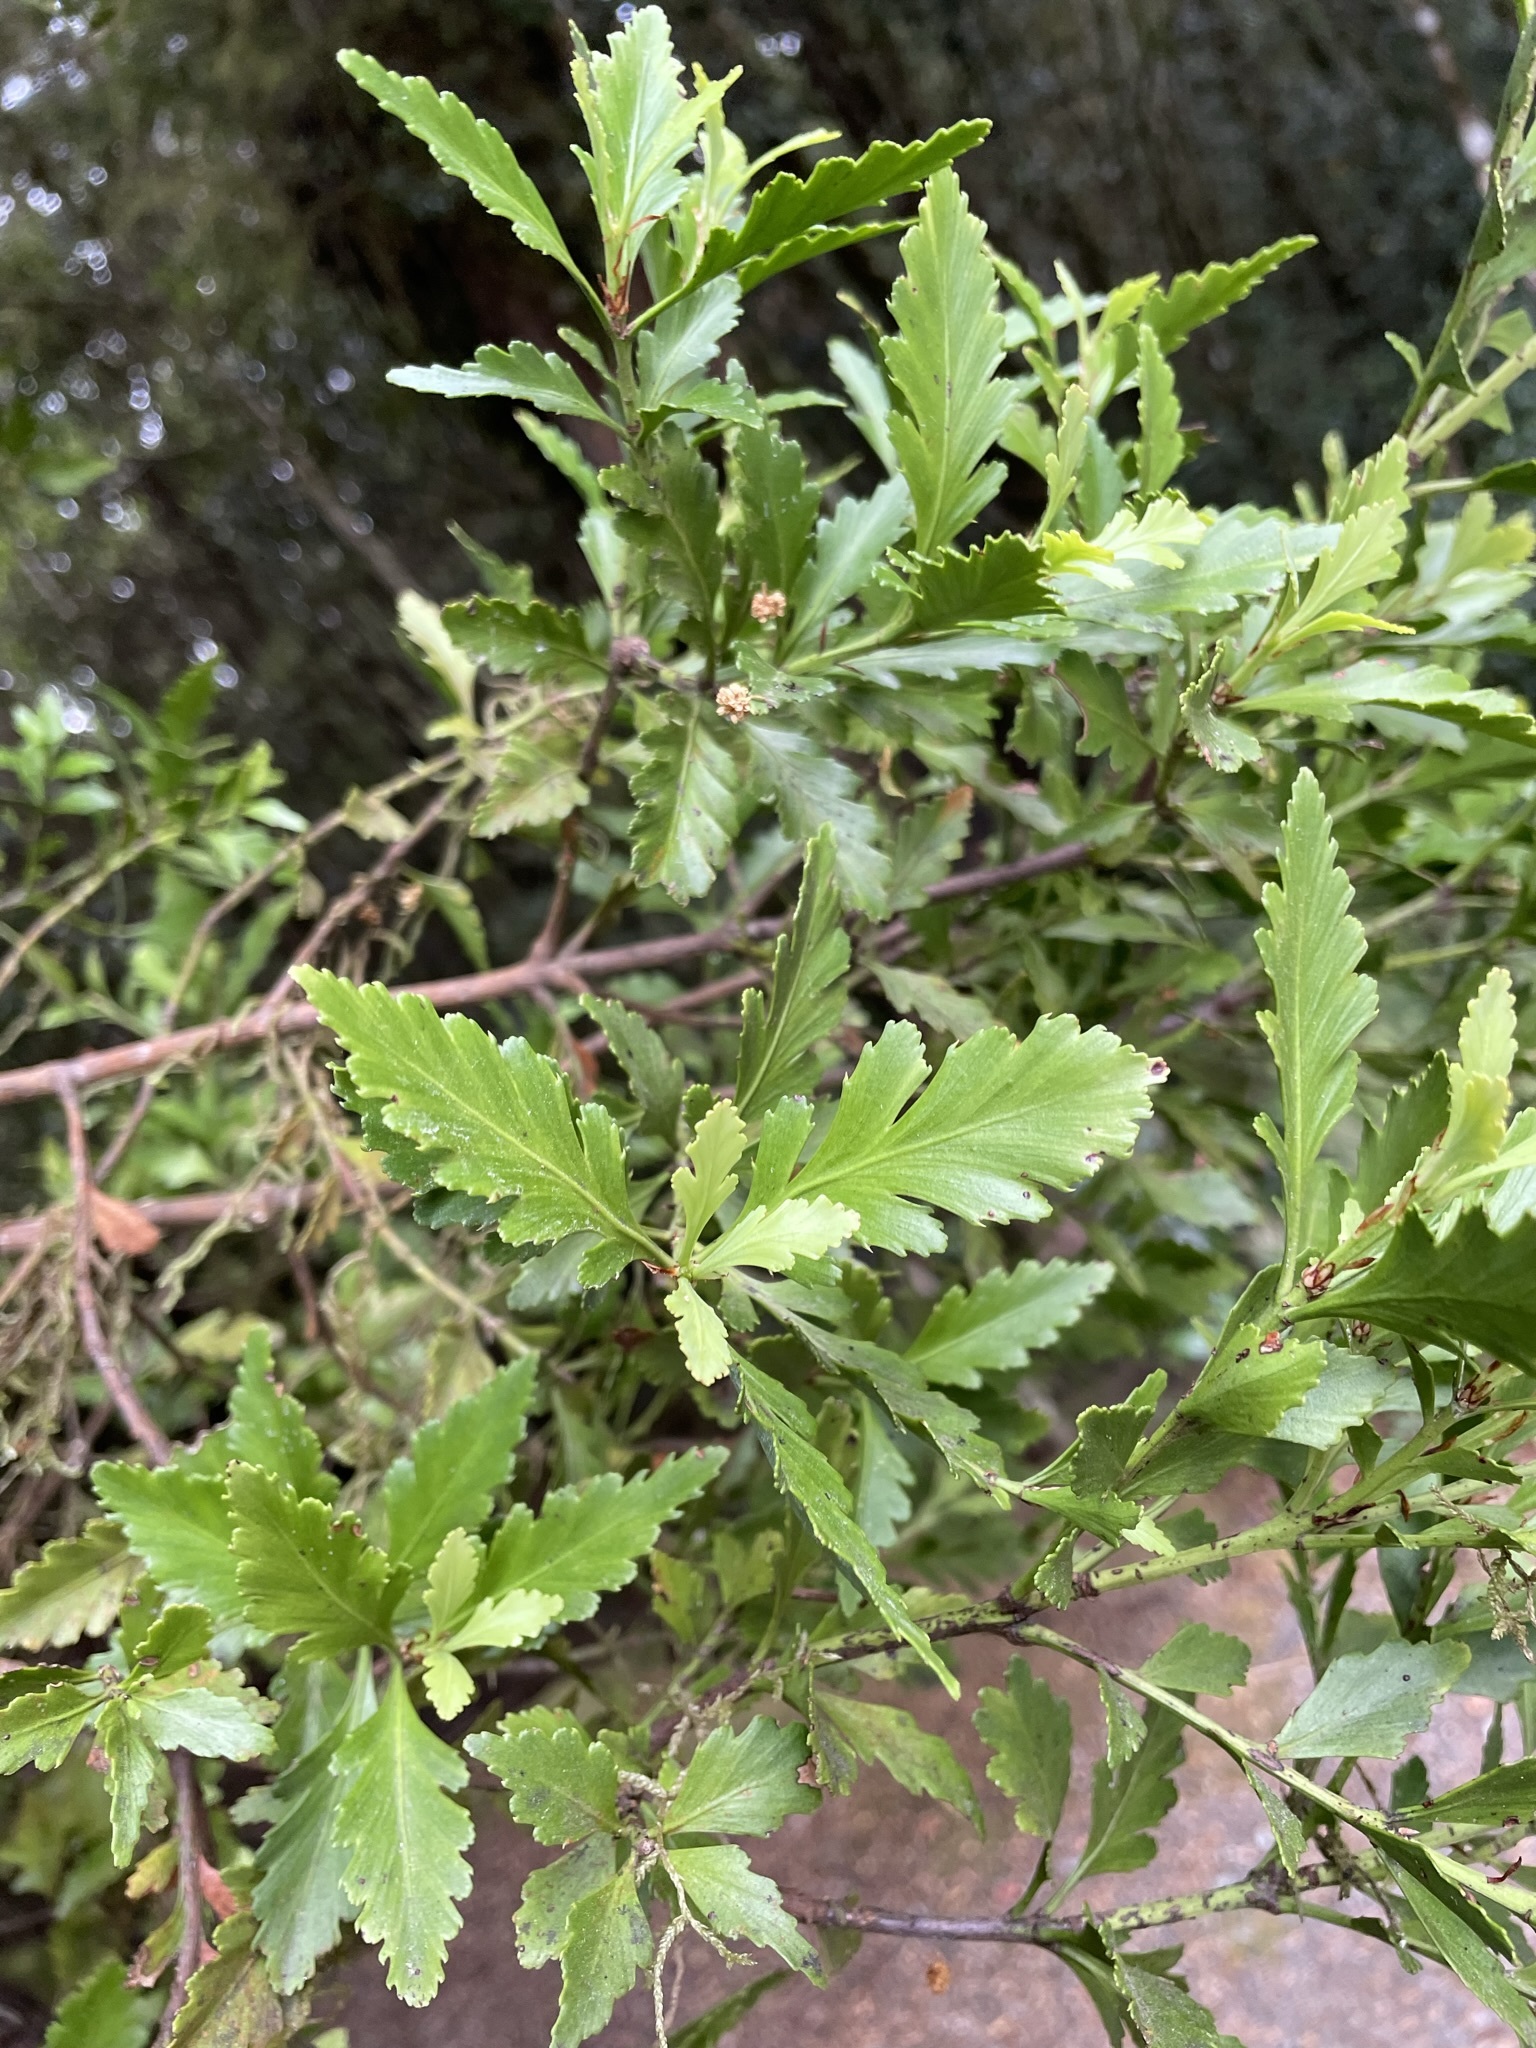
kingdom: Plantae
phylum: Tracheophyta
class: Pinopsida
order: Pinales
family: Phyllocladaceae
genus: Phyllocladus
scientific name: Phyllocladus trichomanoides
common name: Celery pine
